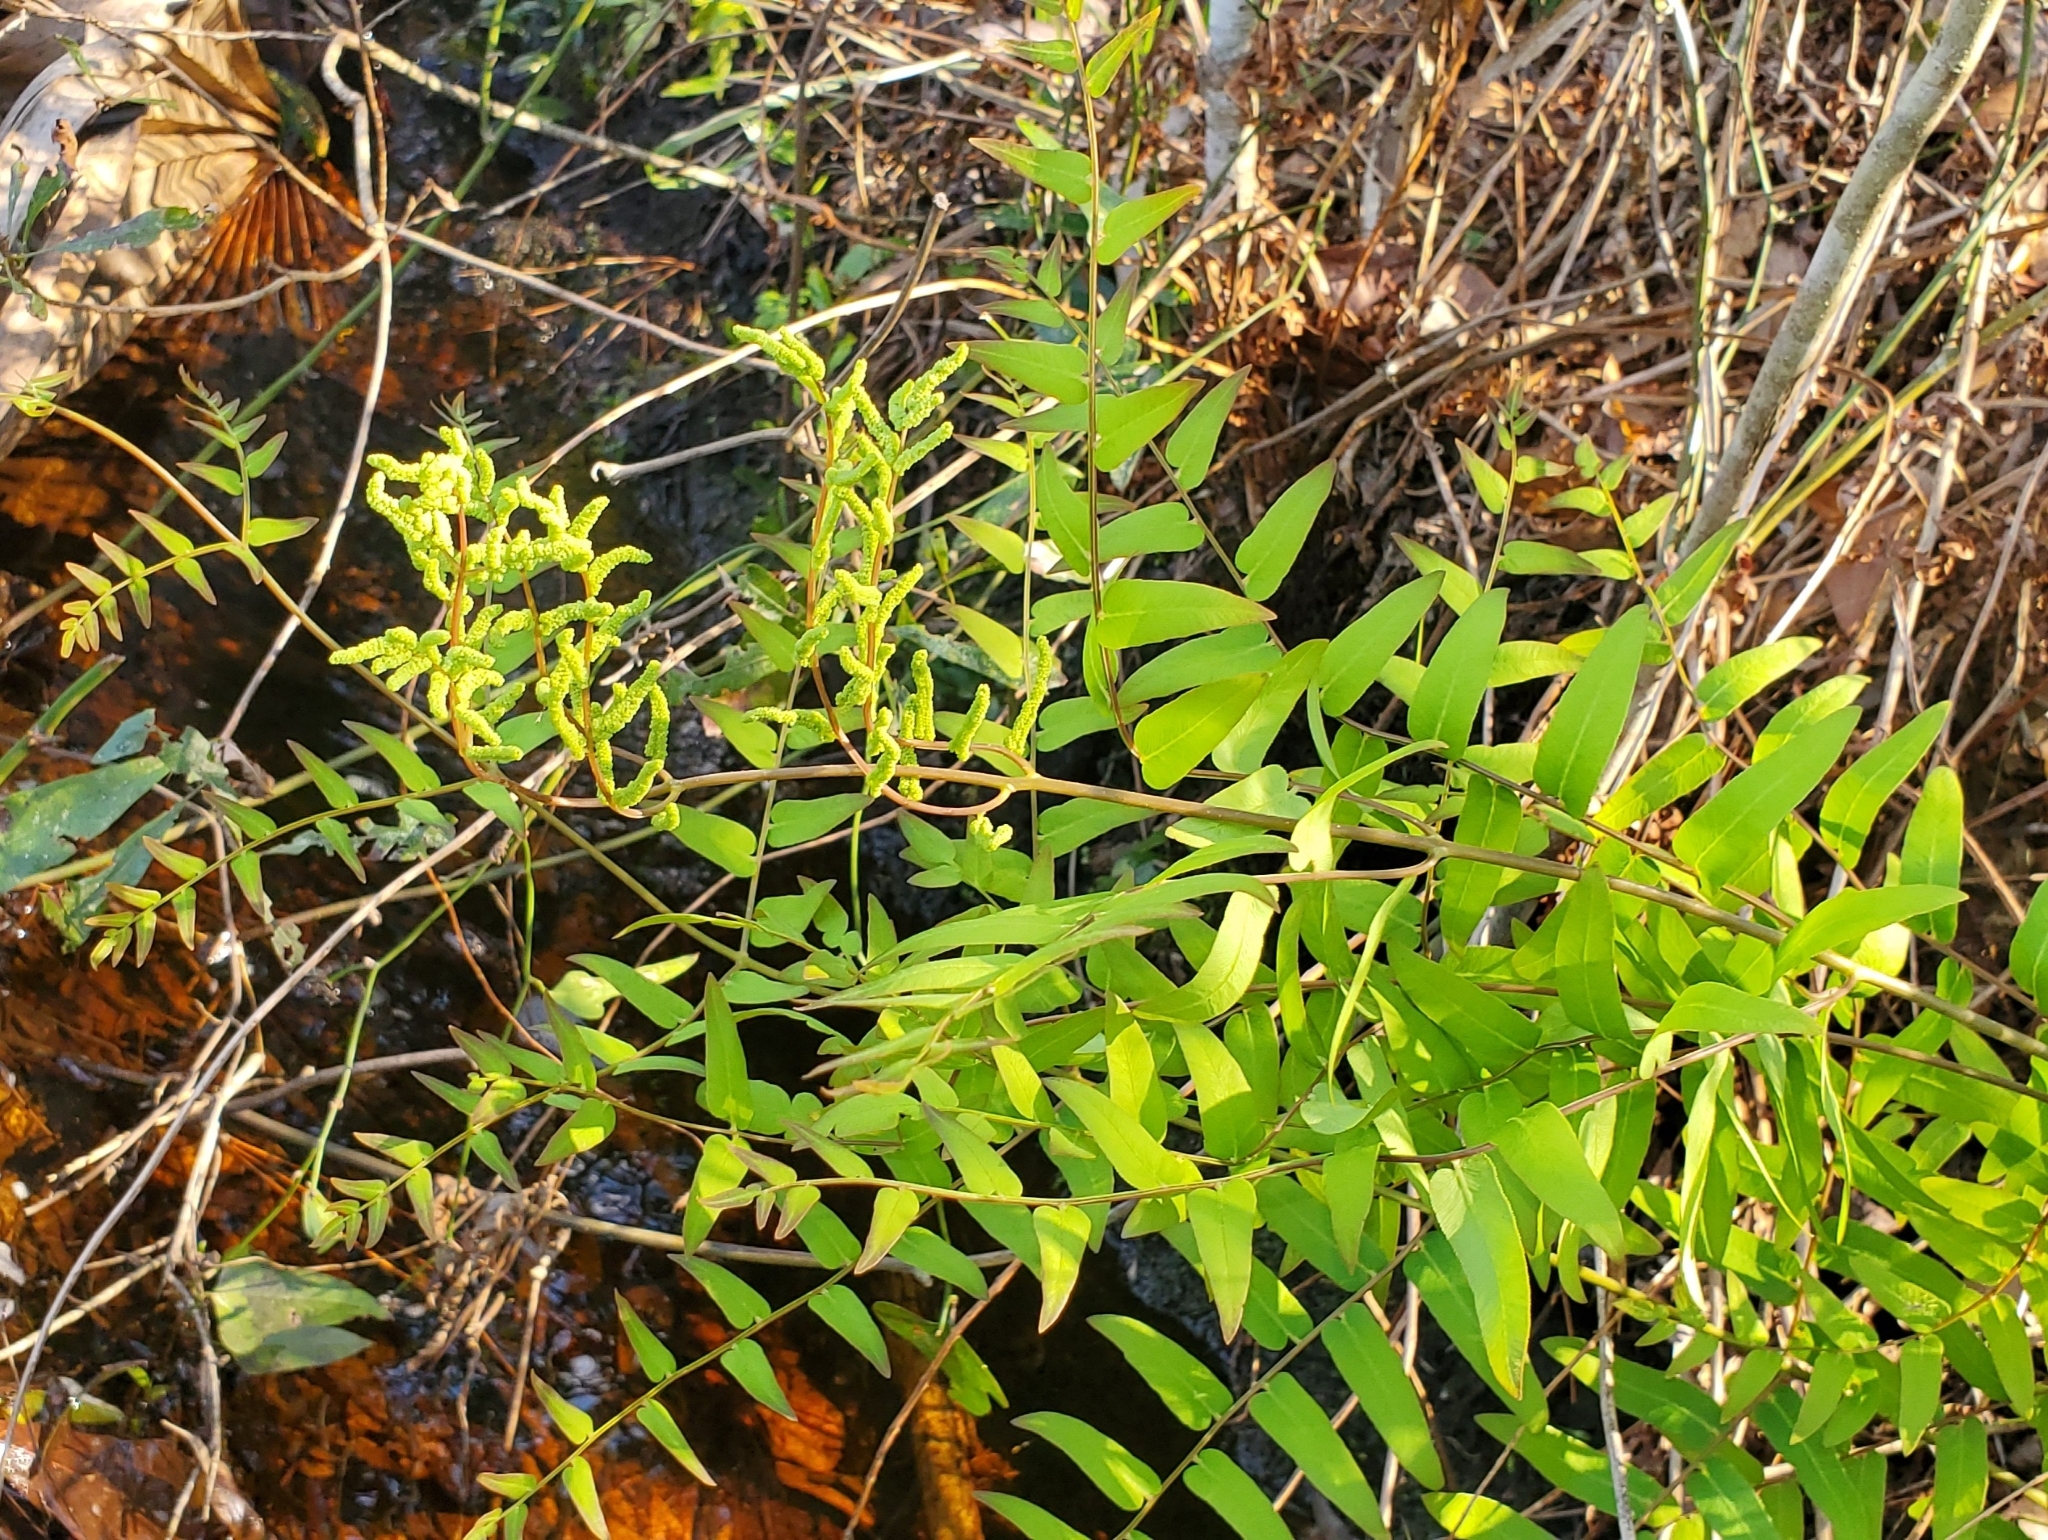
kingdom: Plantae
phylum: Tracheophyta
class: Polypodiopsida
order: Osmundales
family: Osmundaceae
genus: Osmunda
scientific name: Osmunda spectabilis
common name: American royal fern
